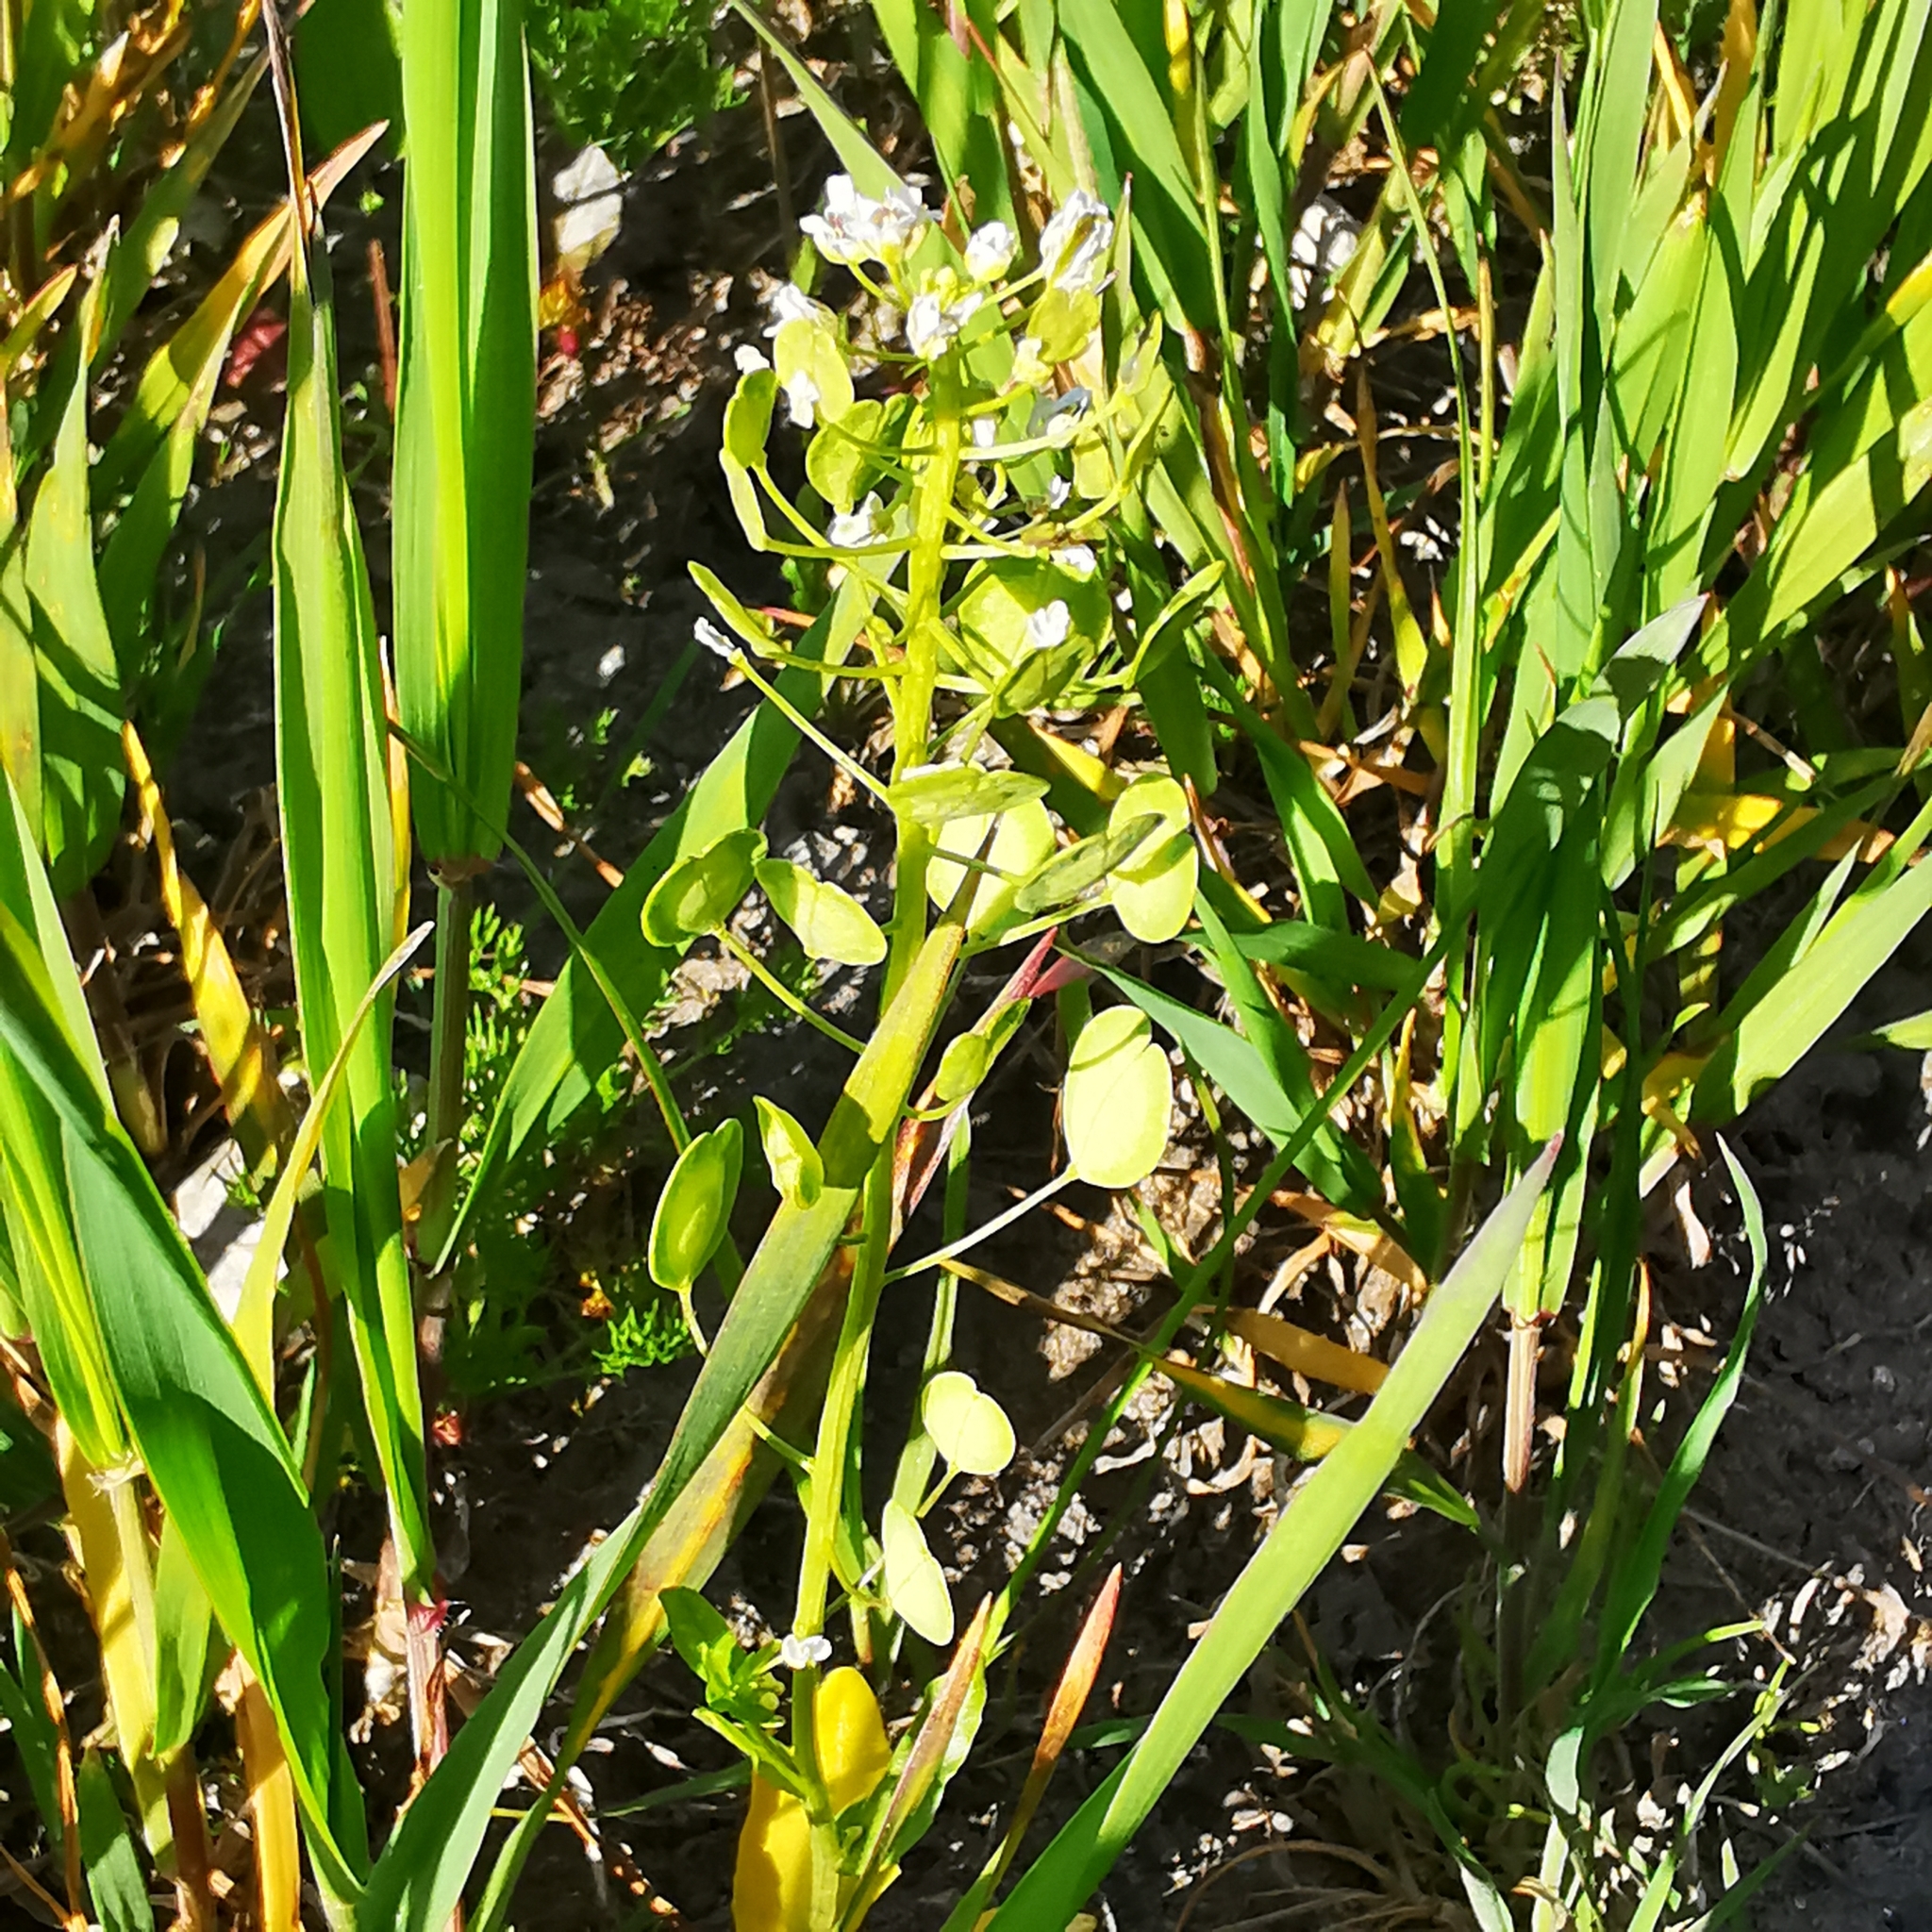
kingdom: Plantae
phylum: Tracheophyta
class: Magnoliopsida
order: Brassicales
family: Brassicaceae
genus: Thlaspi
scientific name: Thlaspi arvense
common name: Field pennycress
